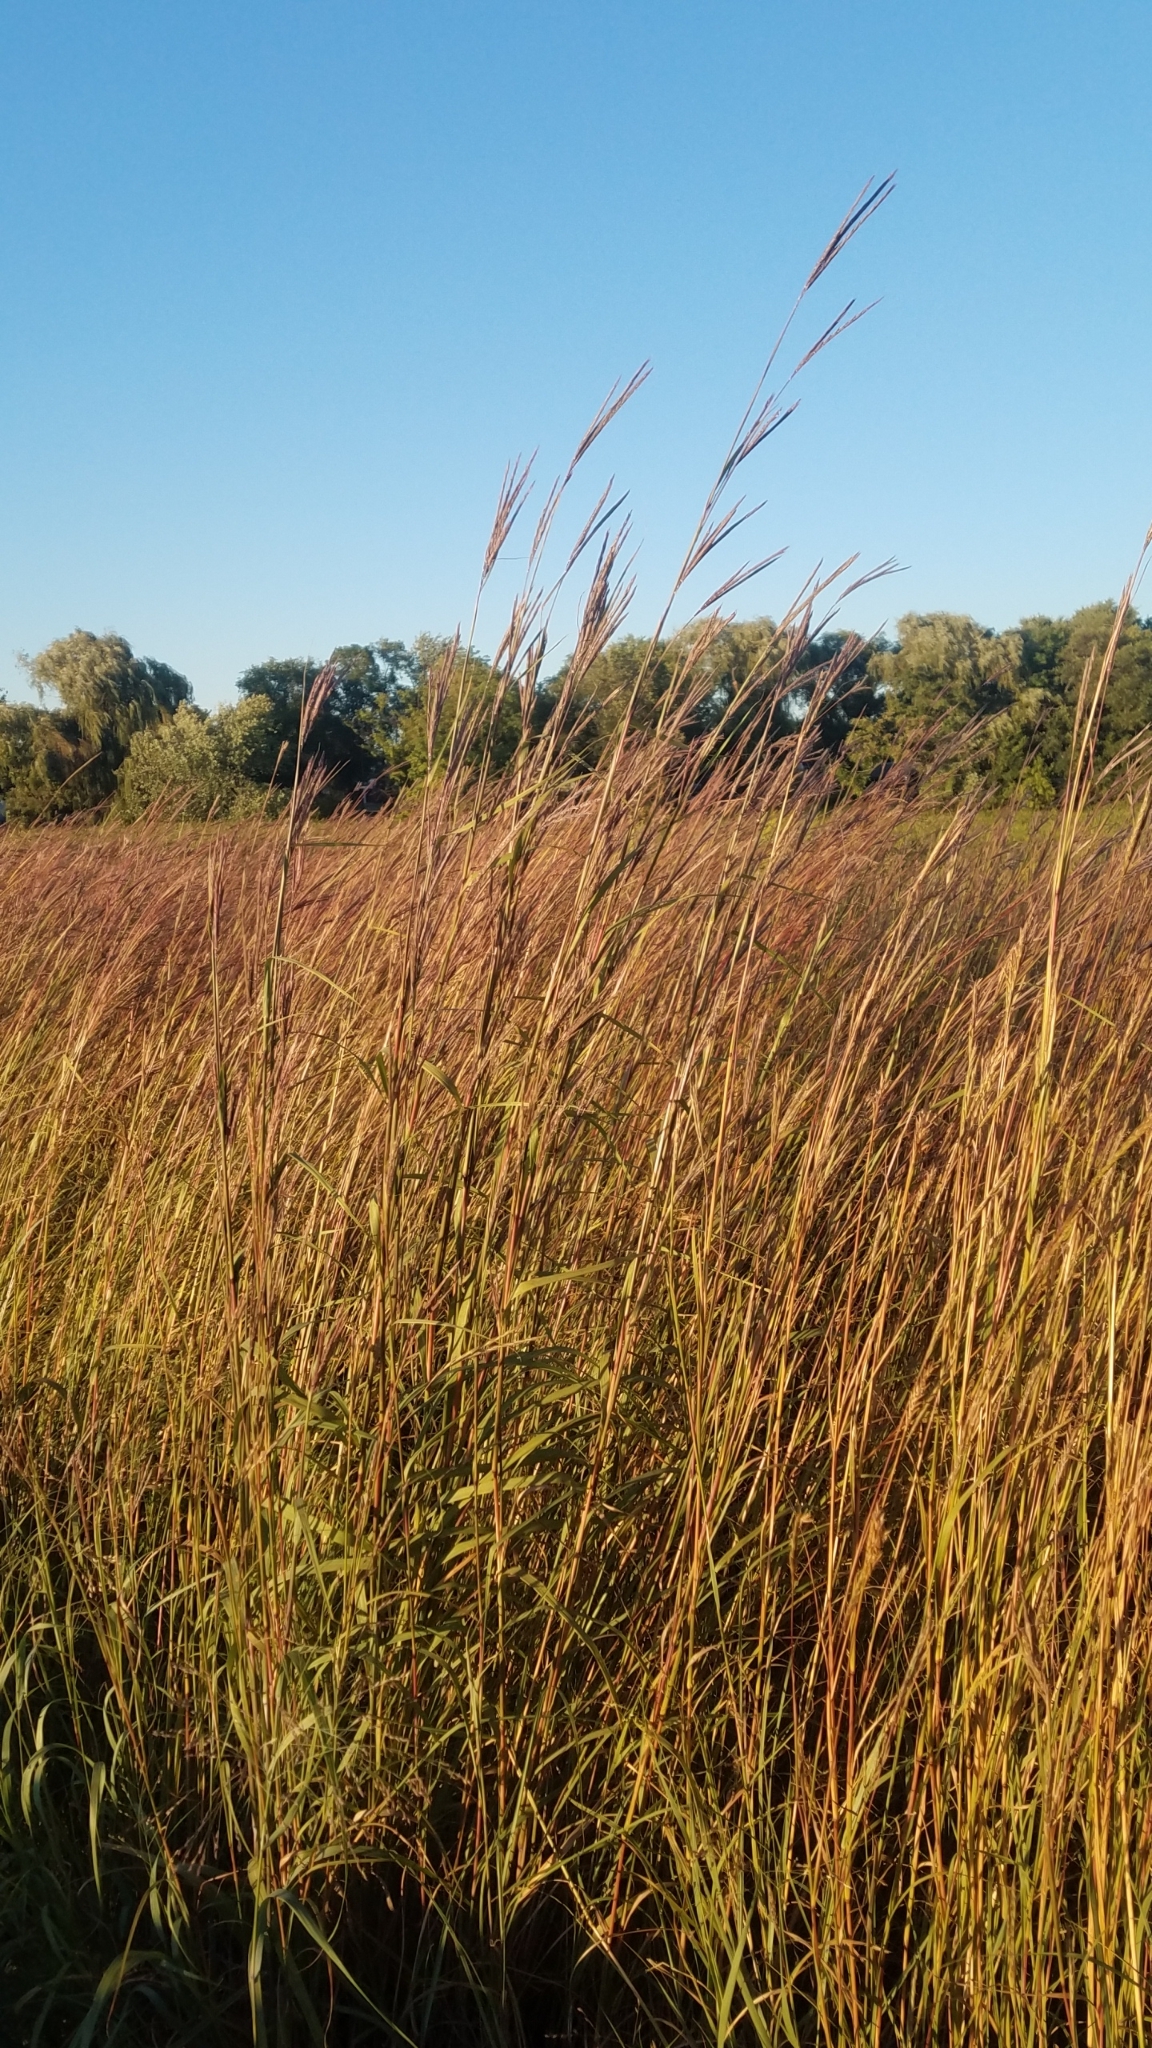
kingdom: Plantae
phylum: Tracheophyta
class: Liliopsida
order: Poales
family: Poaceae
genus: Andropogon
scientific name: Andropogon gerardi
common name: Big bluestem
